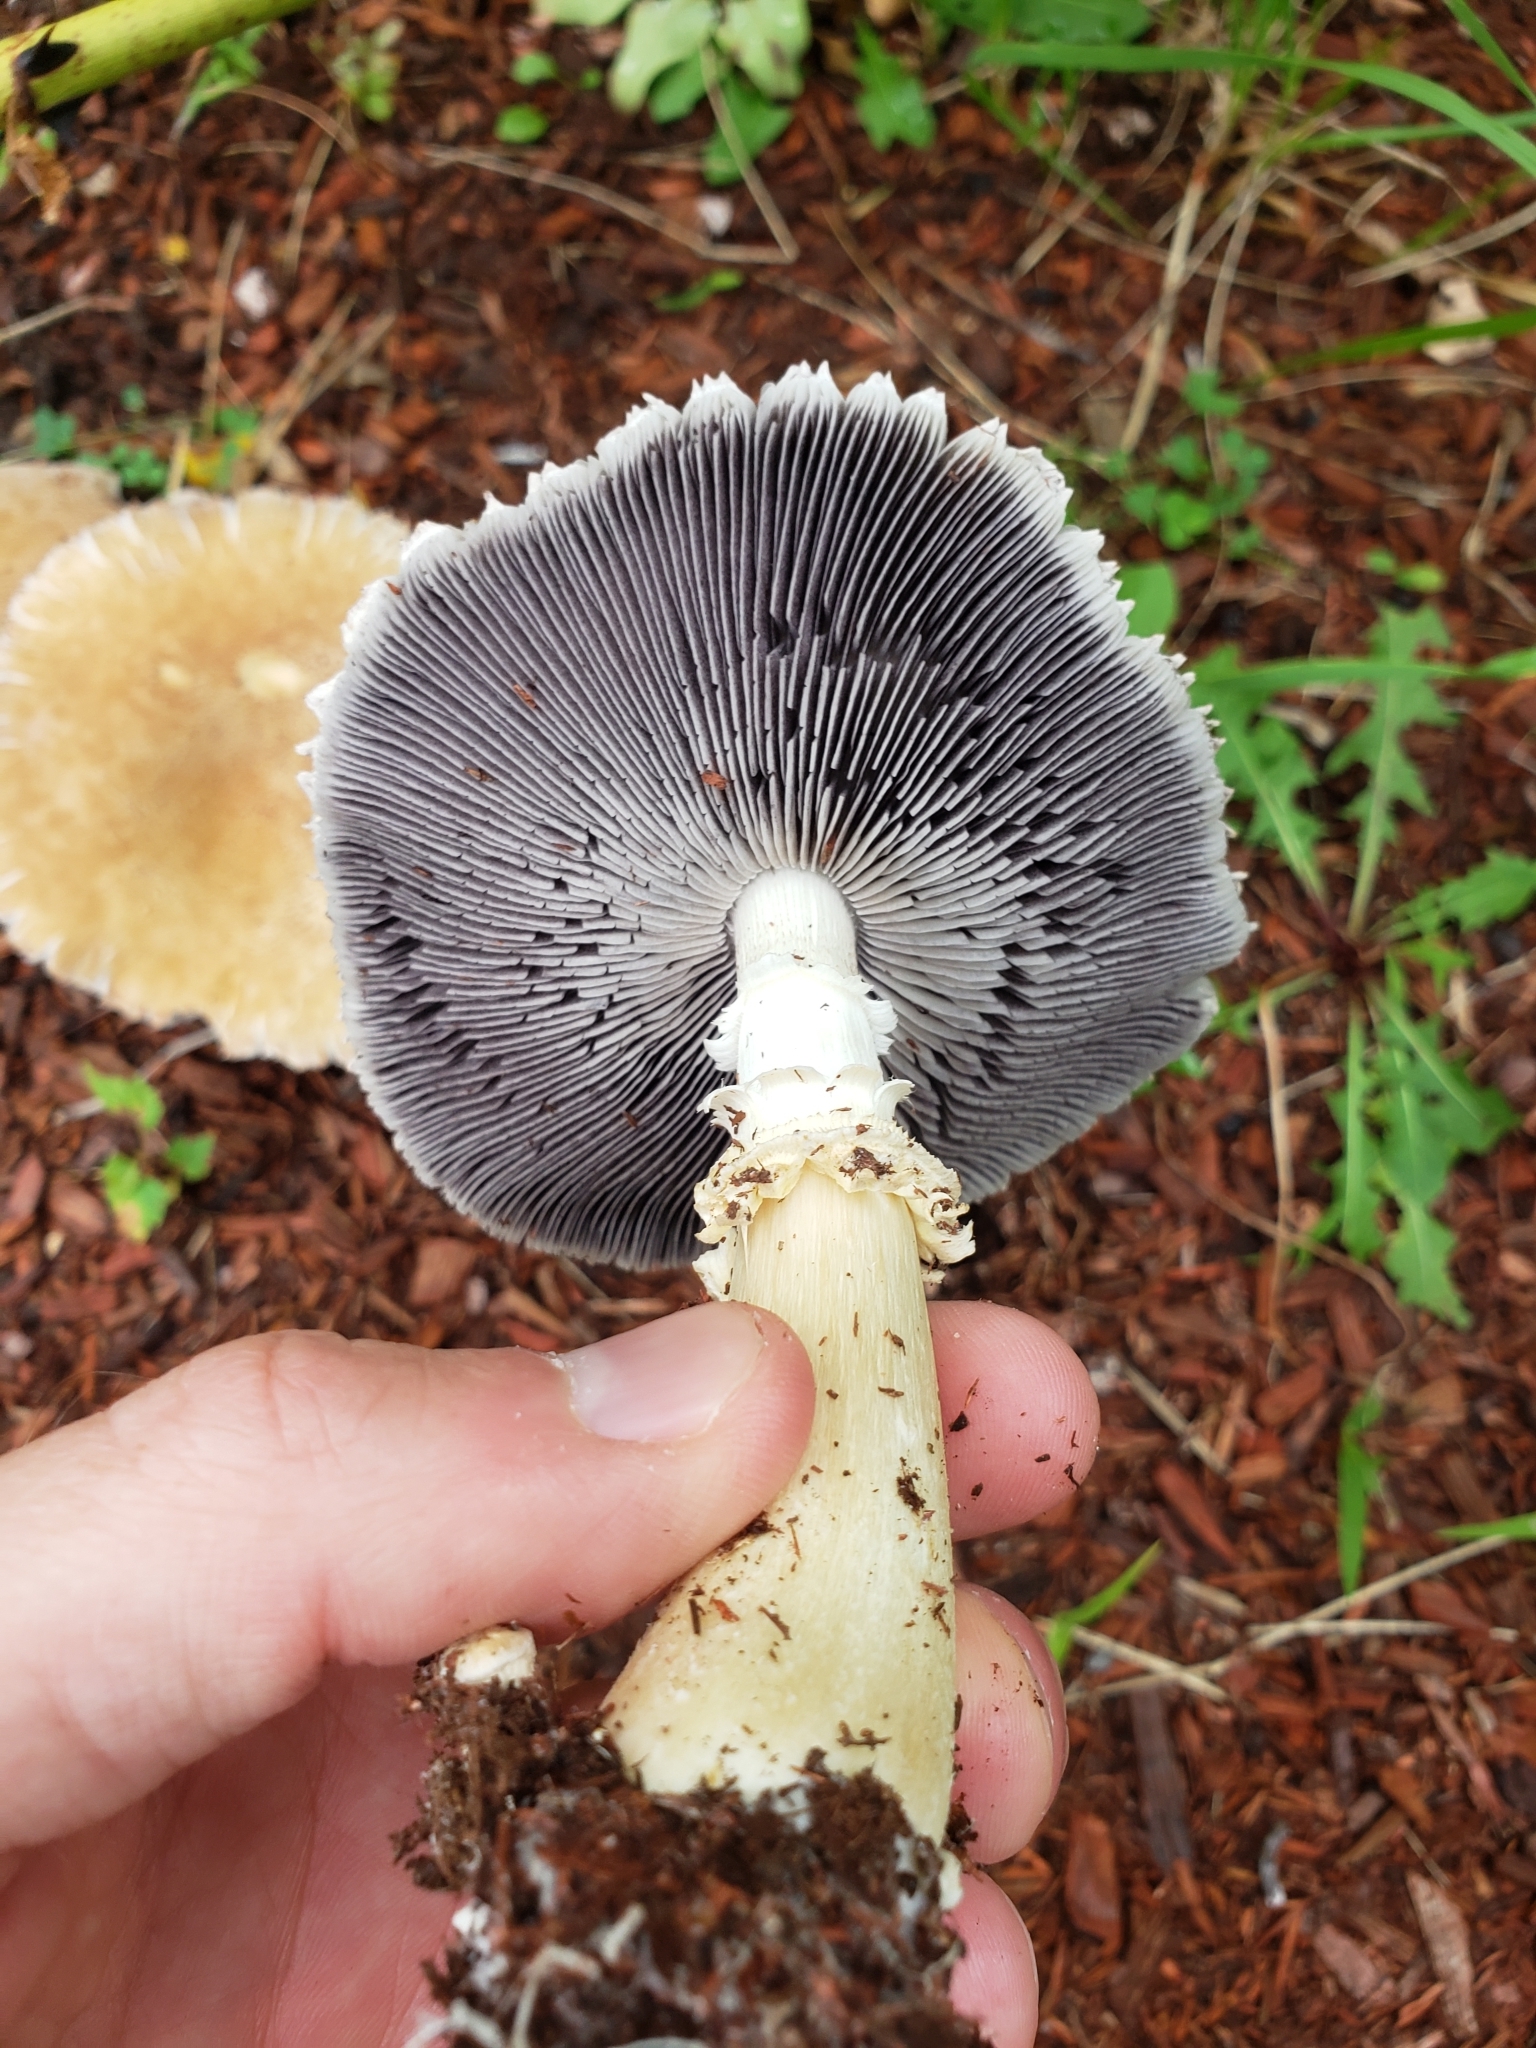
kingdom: Fungi
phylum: Basidiomycota
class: Agaricomycetes
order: Agaricales
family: Strophariaceae
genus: Stropharia
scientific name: Stropharia hardii
